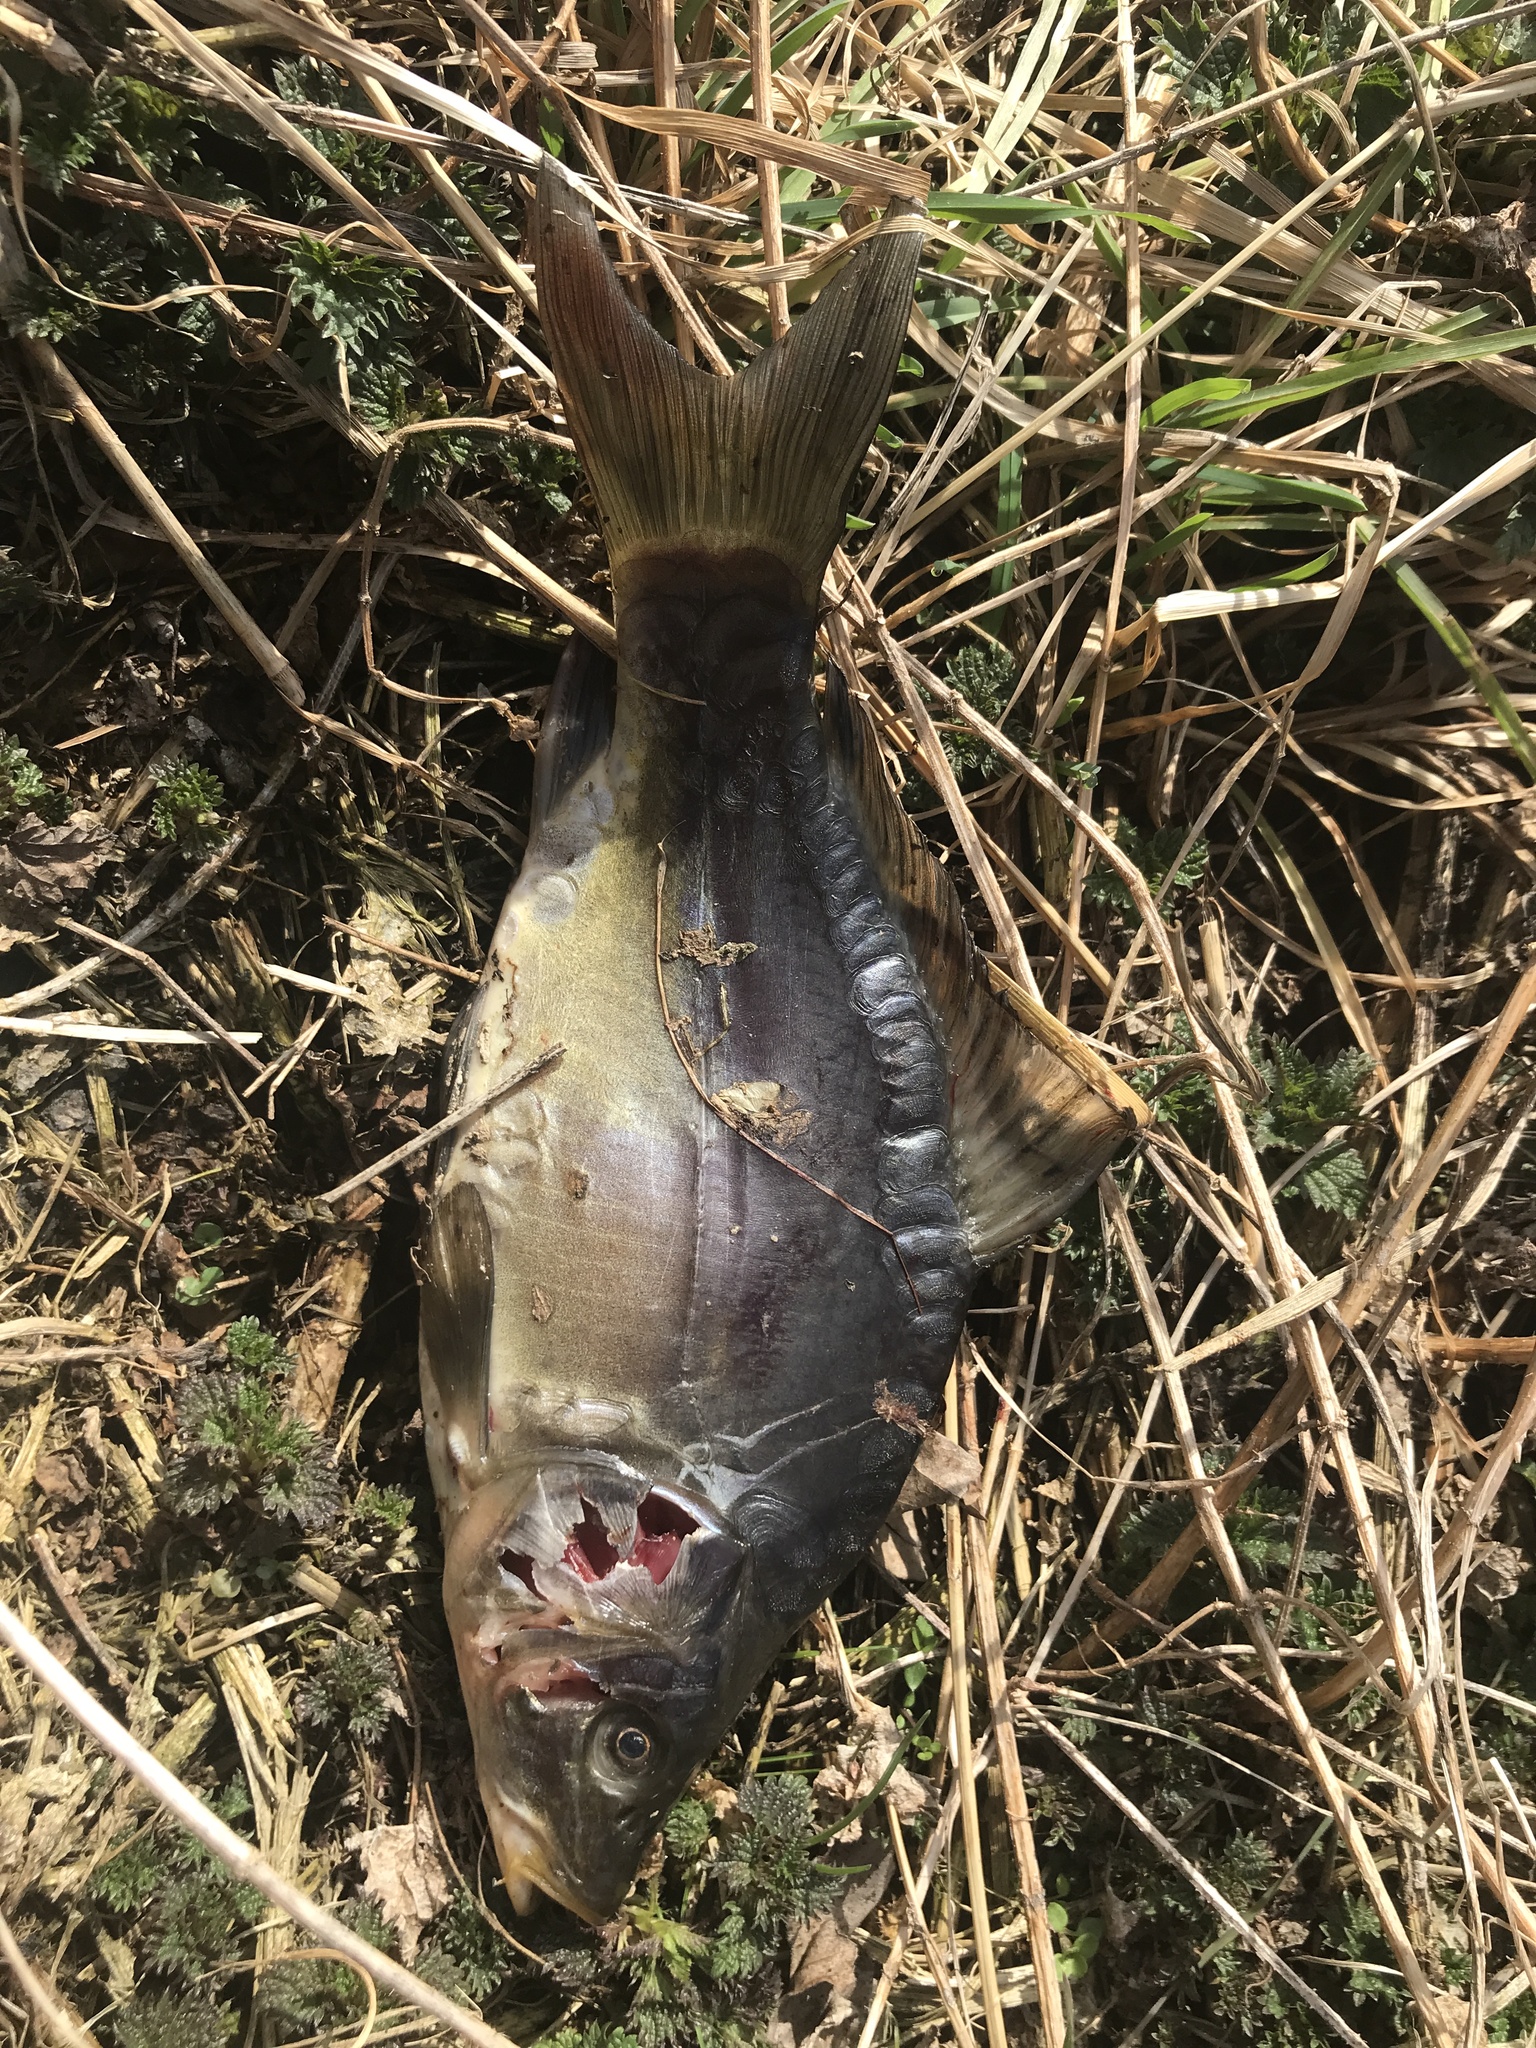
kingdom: Animalia
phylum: Chordata
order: Cypriniformes
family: Cyprinidae
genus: Cyprinus
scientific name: Cyprinus carpio
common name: Common carp
